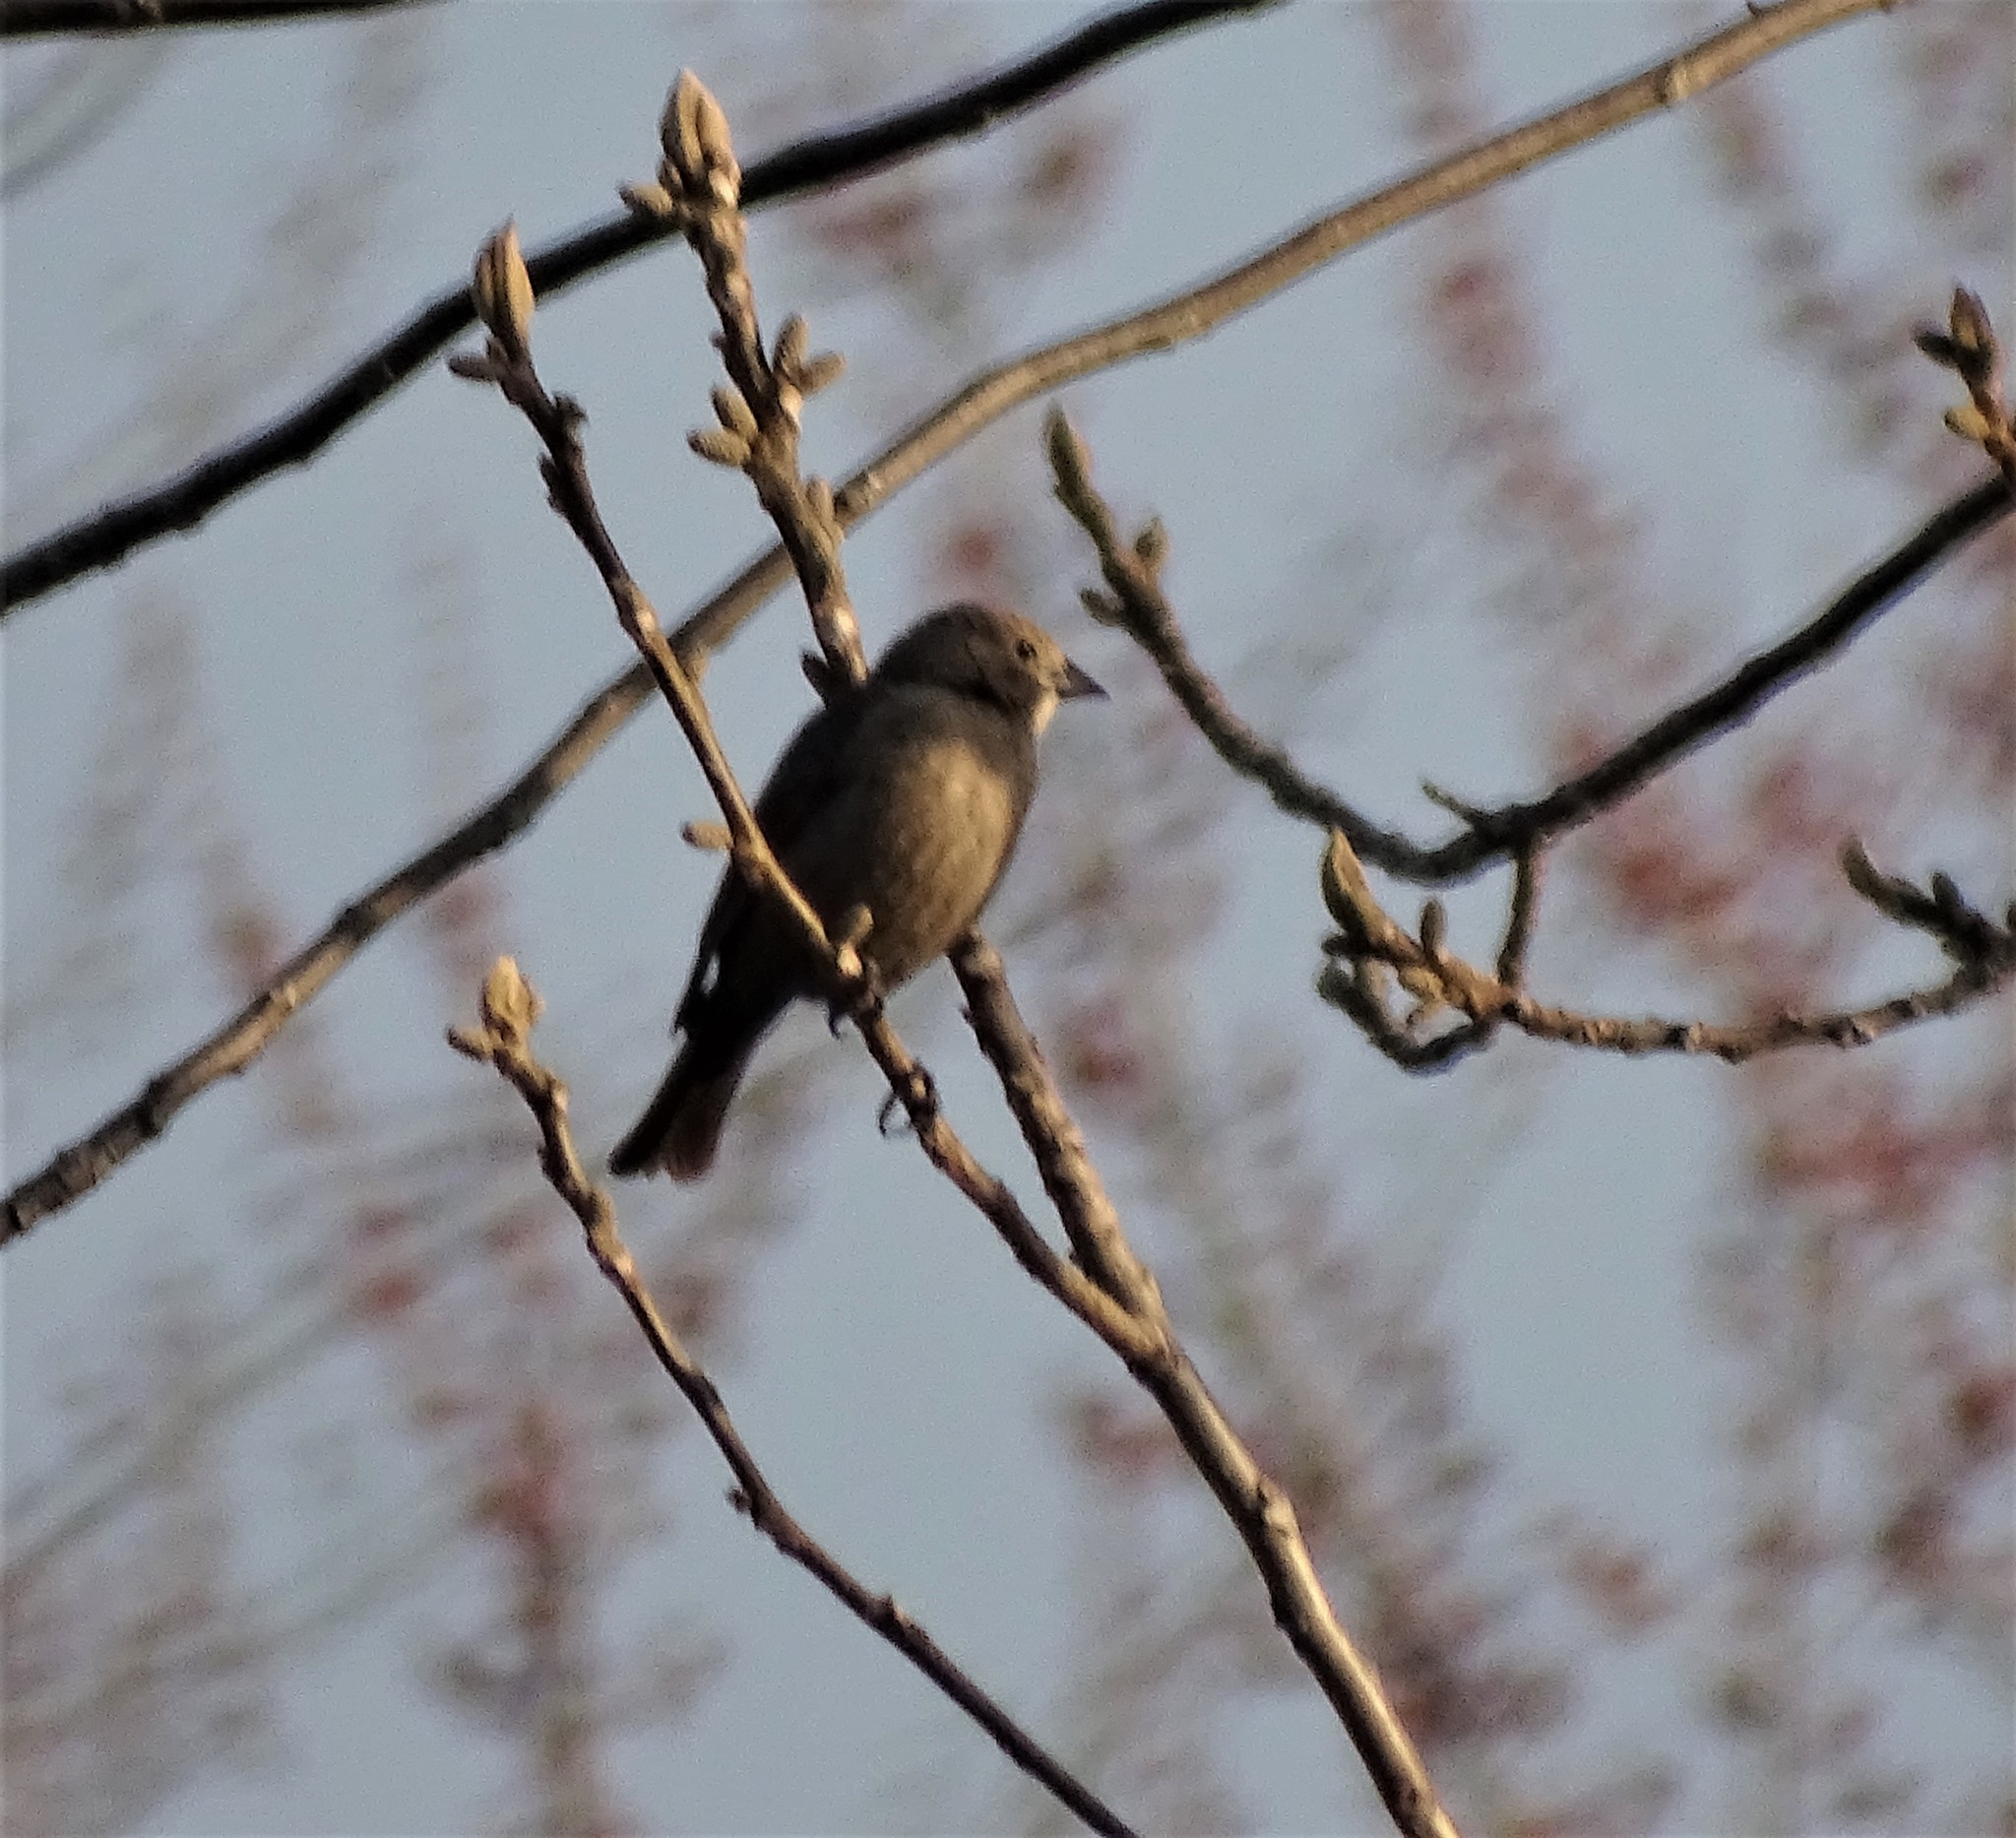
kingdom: Animalia
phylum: Chordata
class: Aves
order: Passeriformes
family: Icteridae
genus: Molothrus
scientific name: Molothrus ater
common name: Brown-headed cowbird
